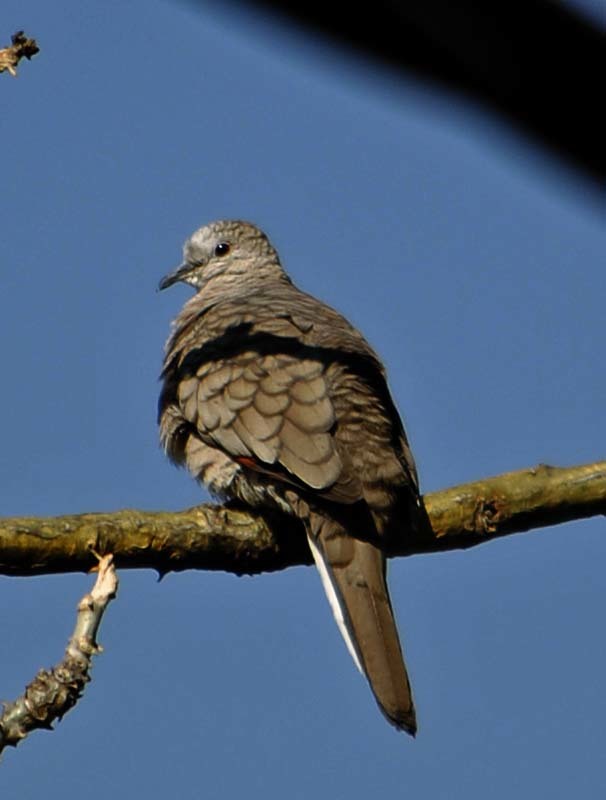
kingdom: Animalia
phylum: Chordata
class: Aves
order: Columbiformes
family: Columbidae
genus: Columbina
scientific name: Columbina inca
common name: Inca dove
